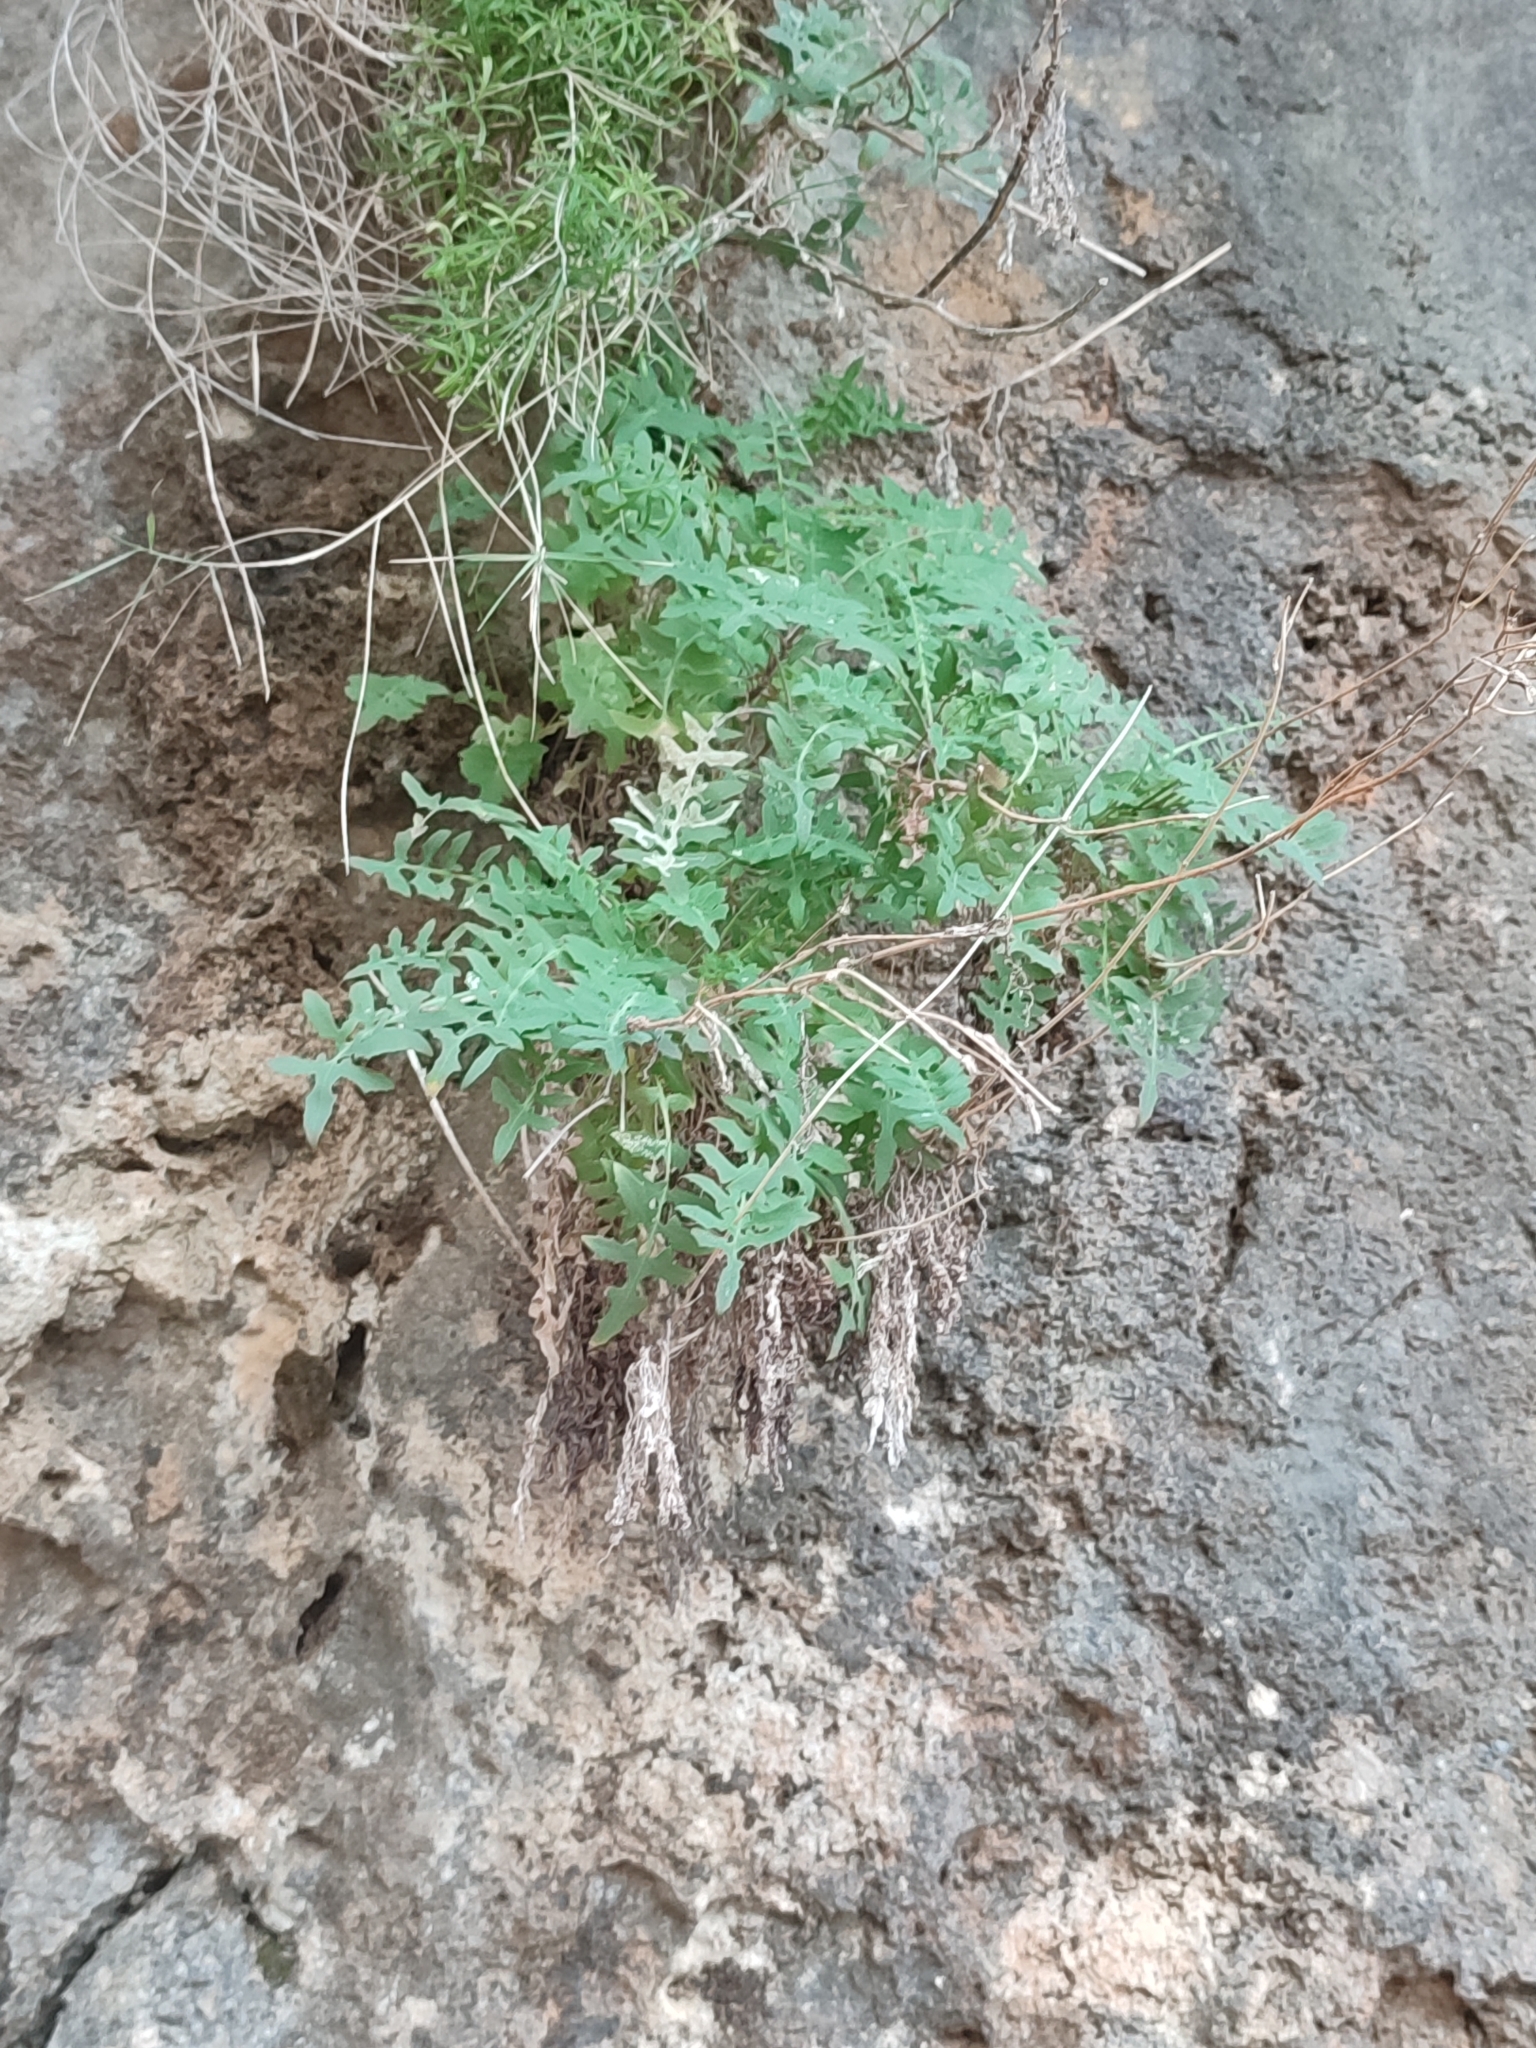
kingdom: Plantae
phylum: Tracheophyta
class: Magnoliopsida
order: Asterales
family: Asteraceae
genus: Sonchus
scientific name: Sonchus tenerrimus
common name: Clammy sowthistle
